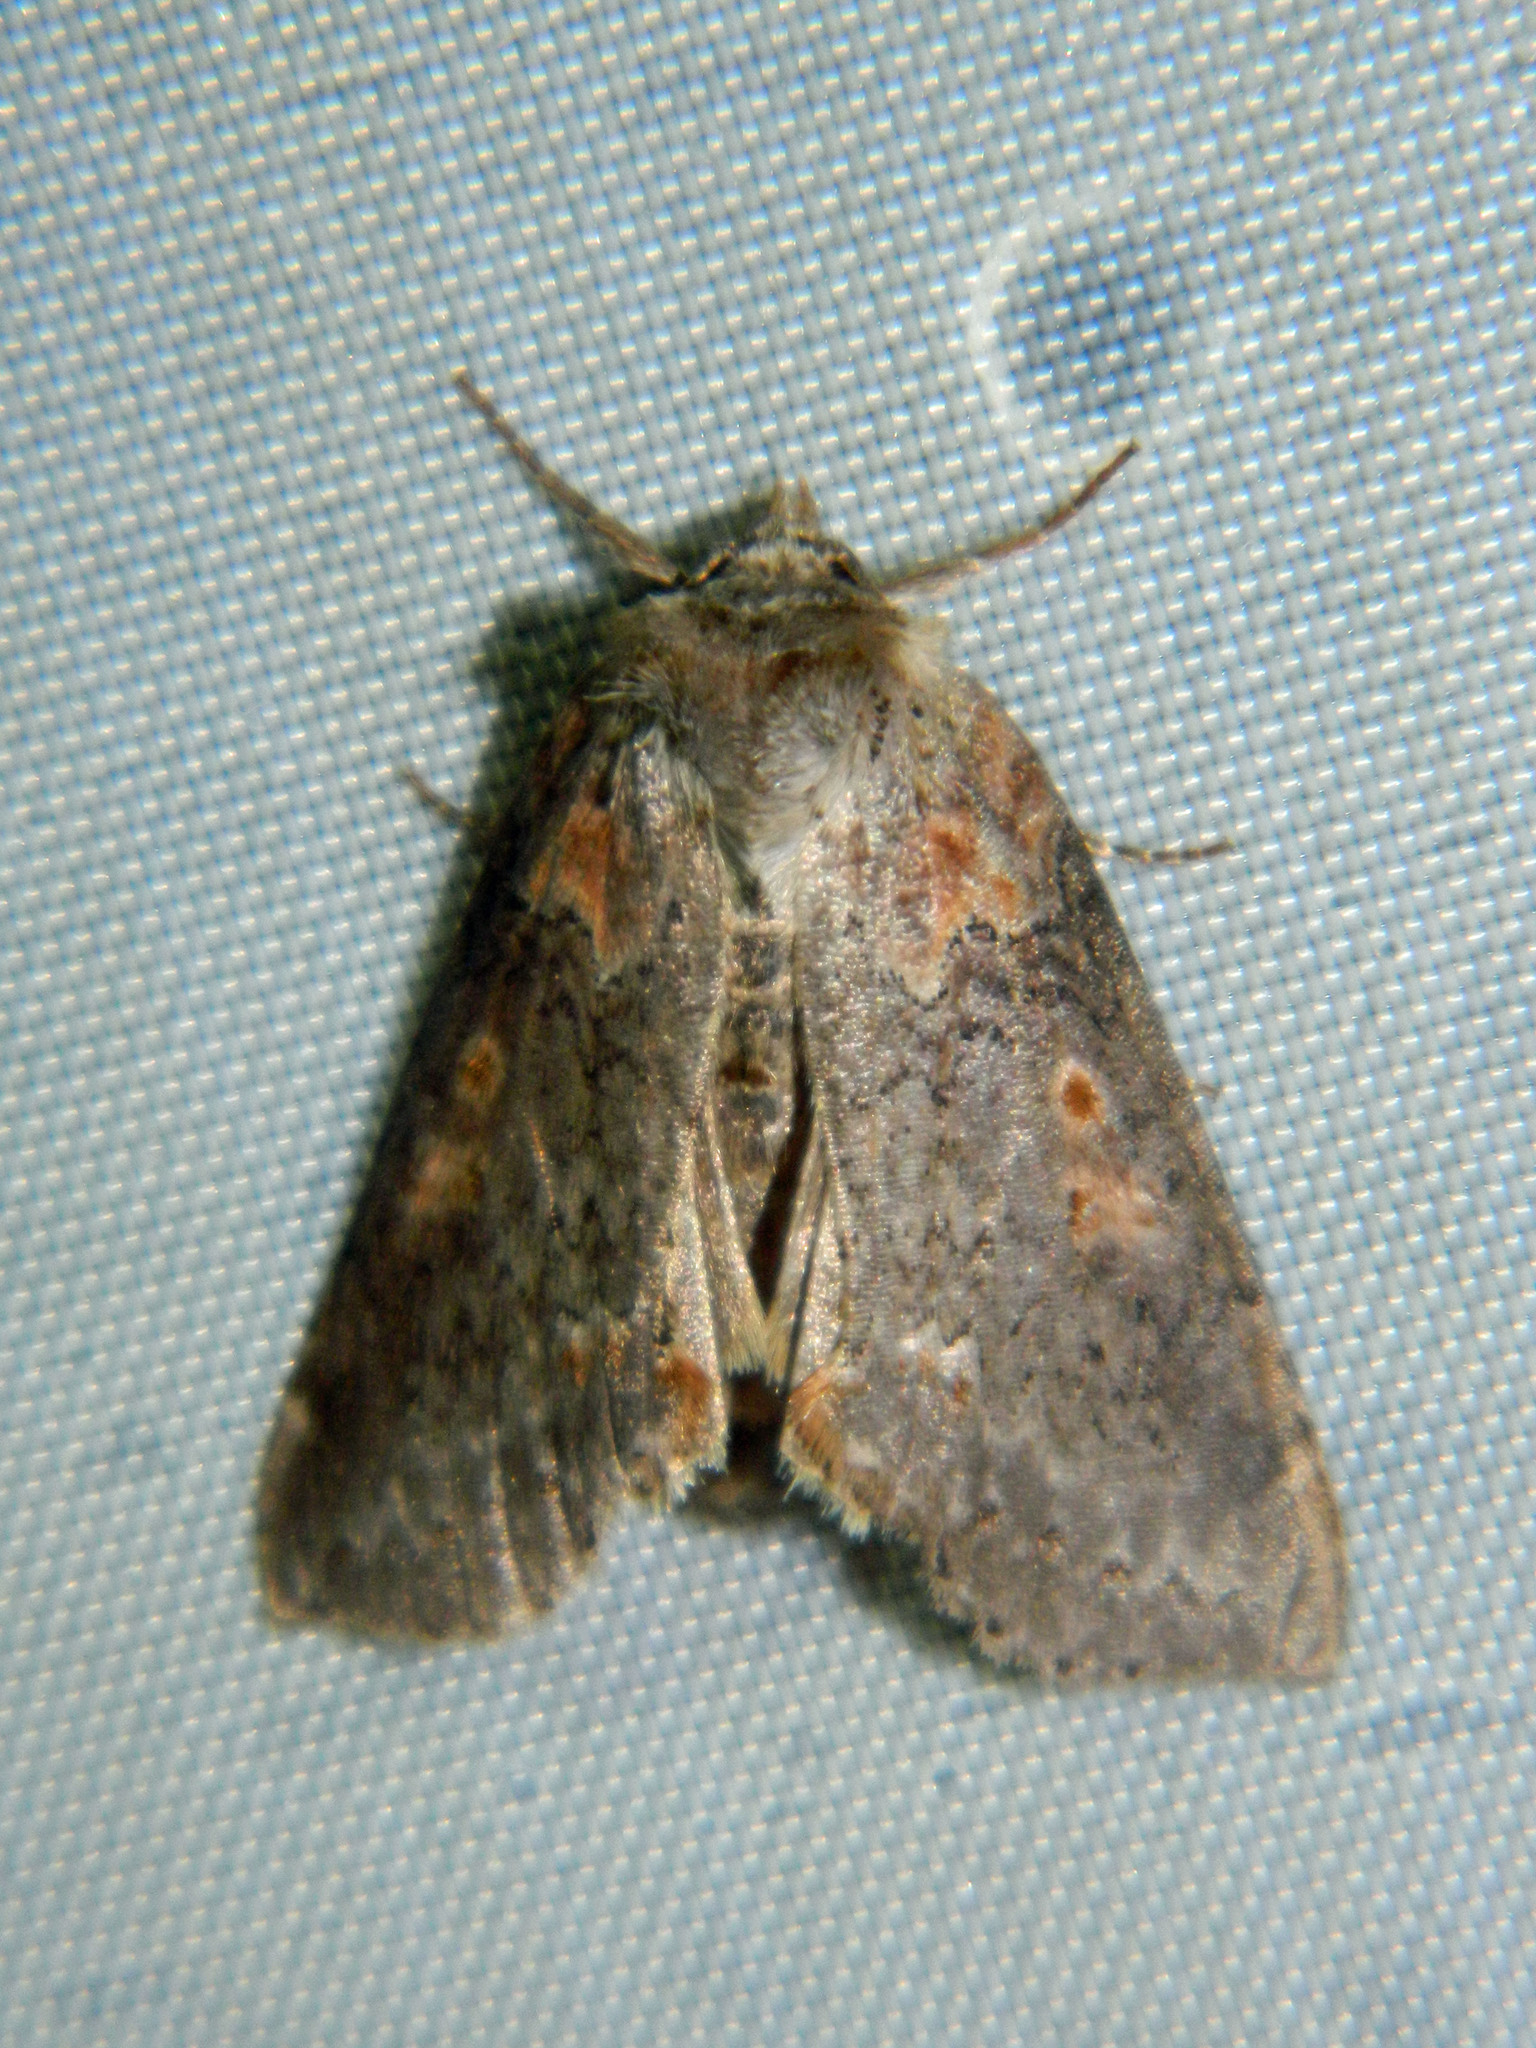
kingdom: Animalia
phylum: Arthropoda
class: Insecta
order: Lepidoptera
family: Drepanidae
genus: Pseudothyatira
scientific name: Pseudothyatira cymatophoroides
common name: Tufted thyatirid moth
